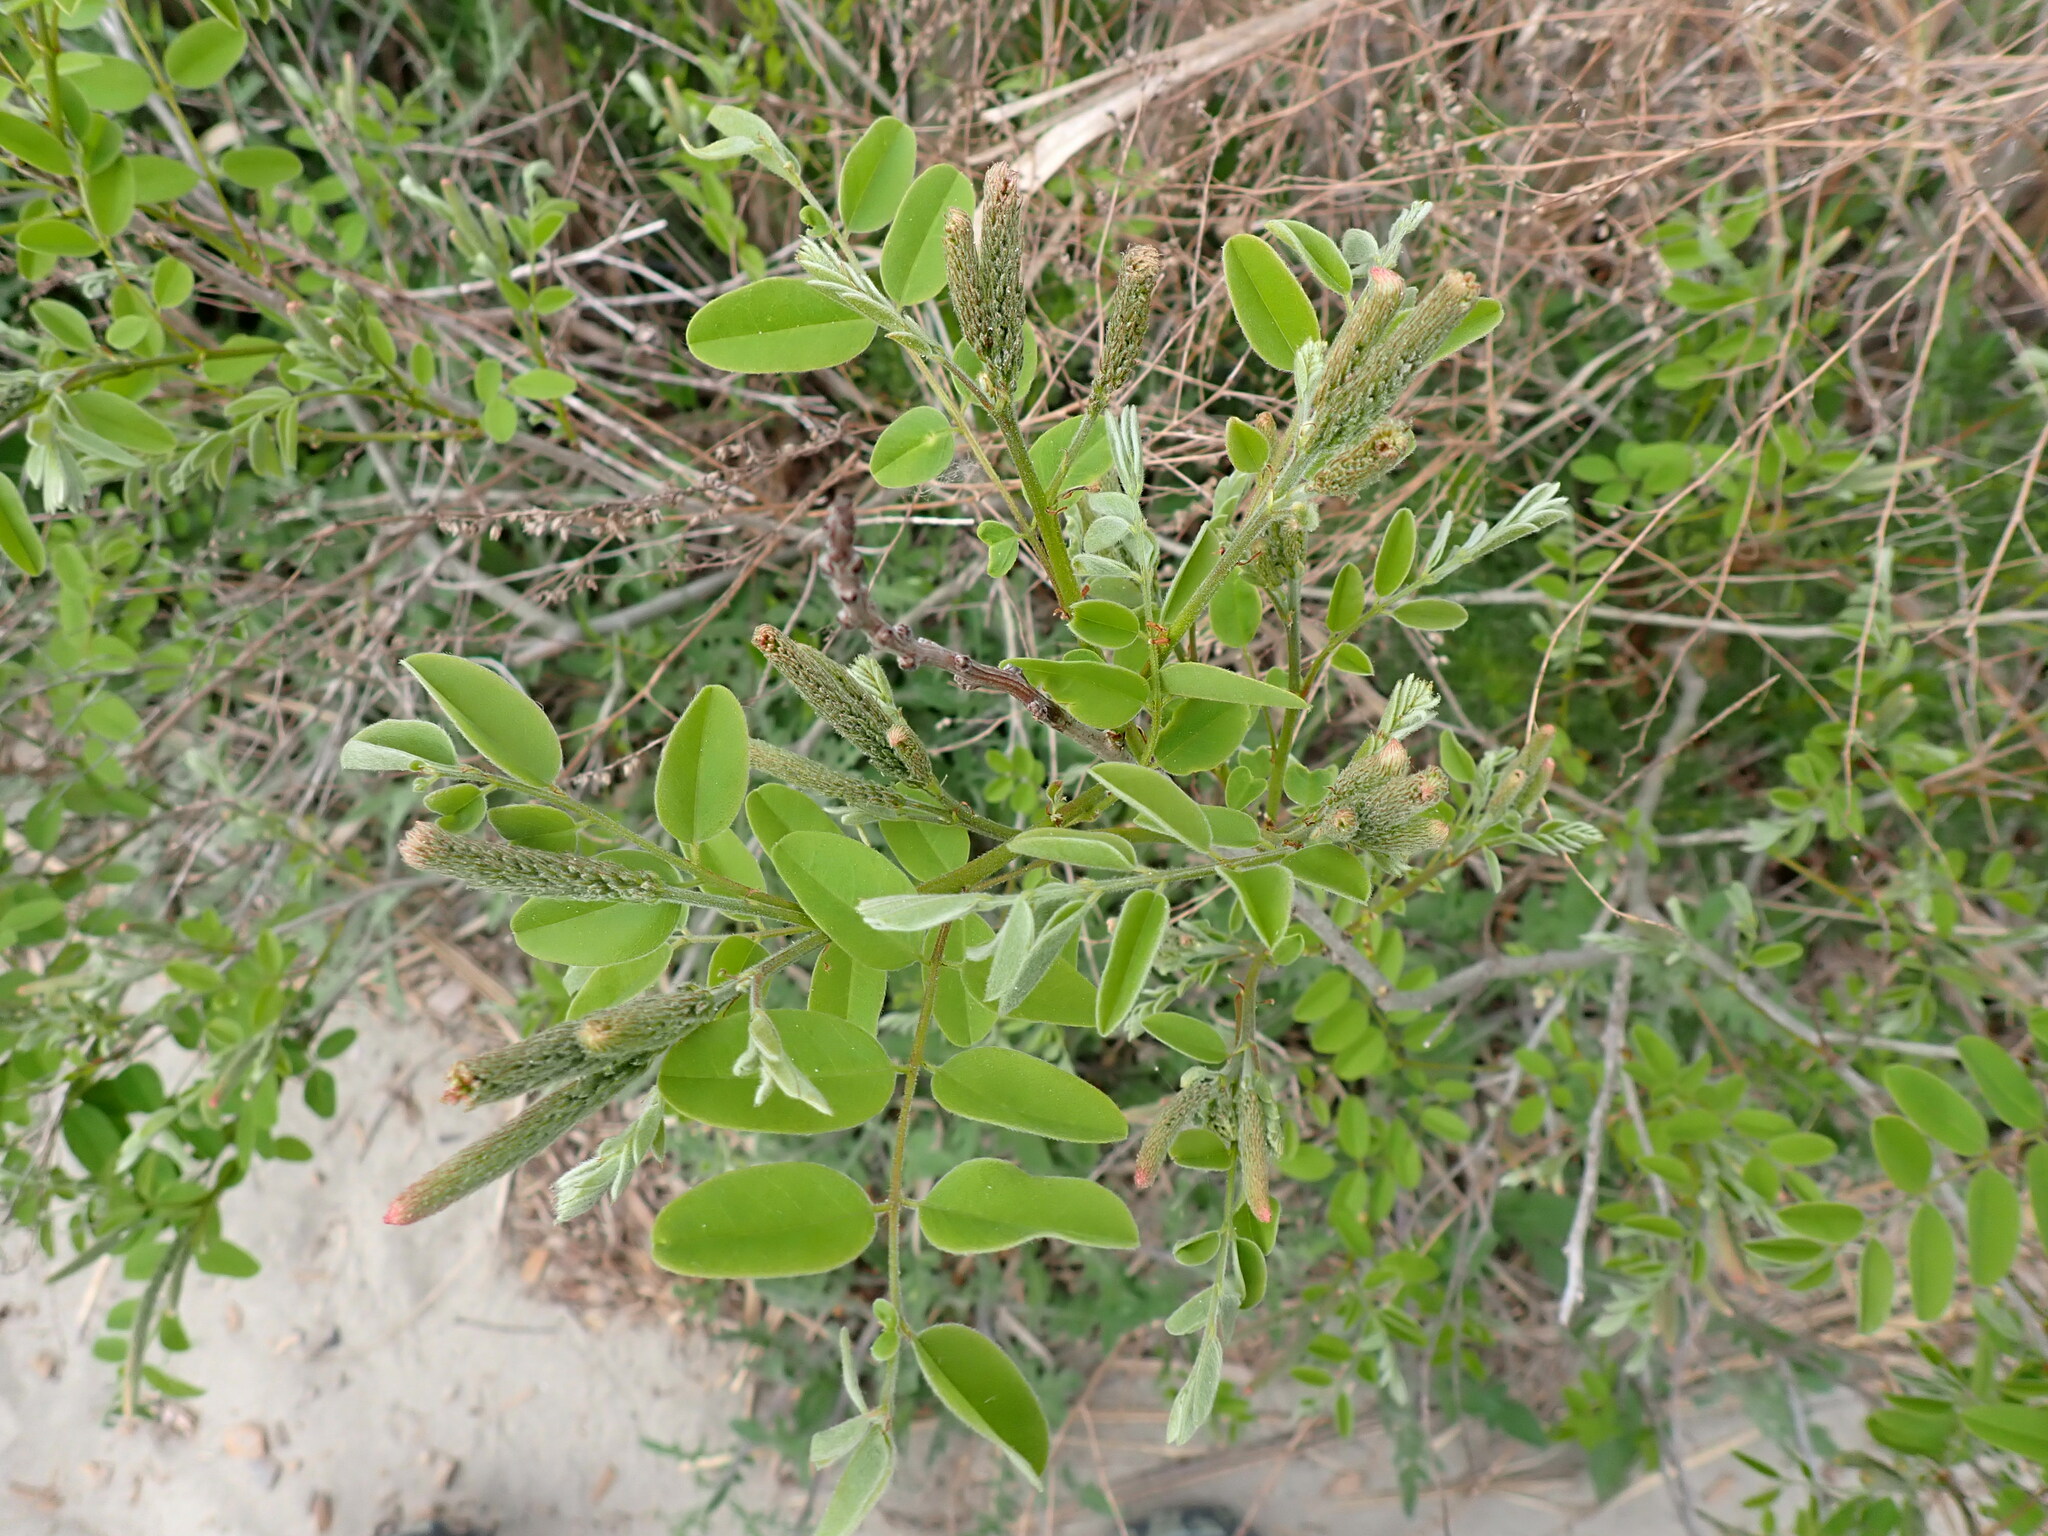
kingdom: Plantae
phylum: Tracheophyta
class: Magnoliopsida
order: Fabales
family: Fabaceae
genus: Amorpha
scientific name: Amorpha fruticosa
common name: False indigo
